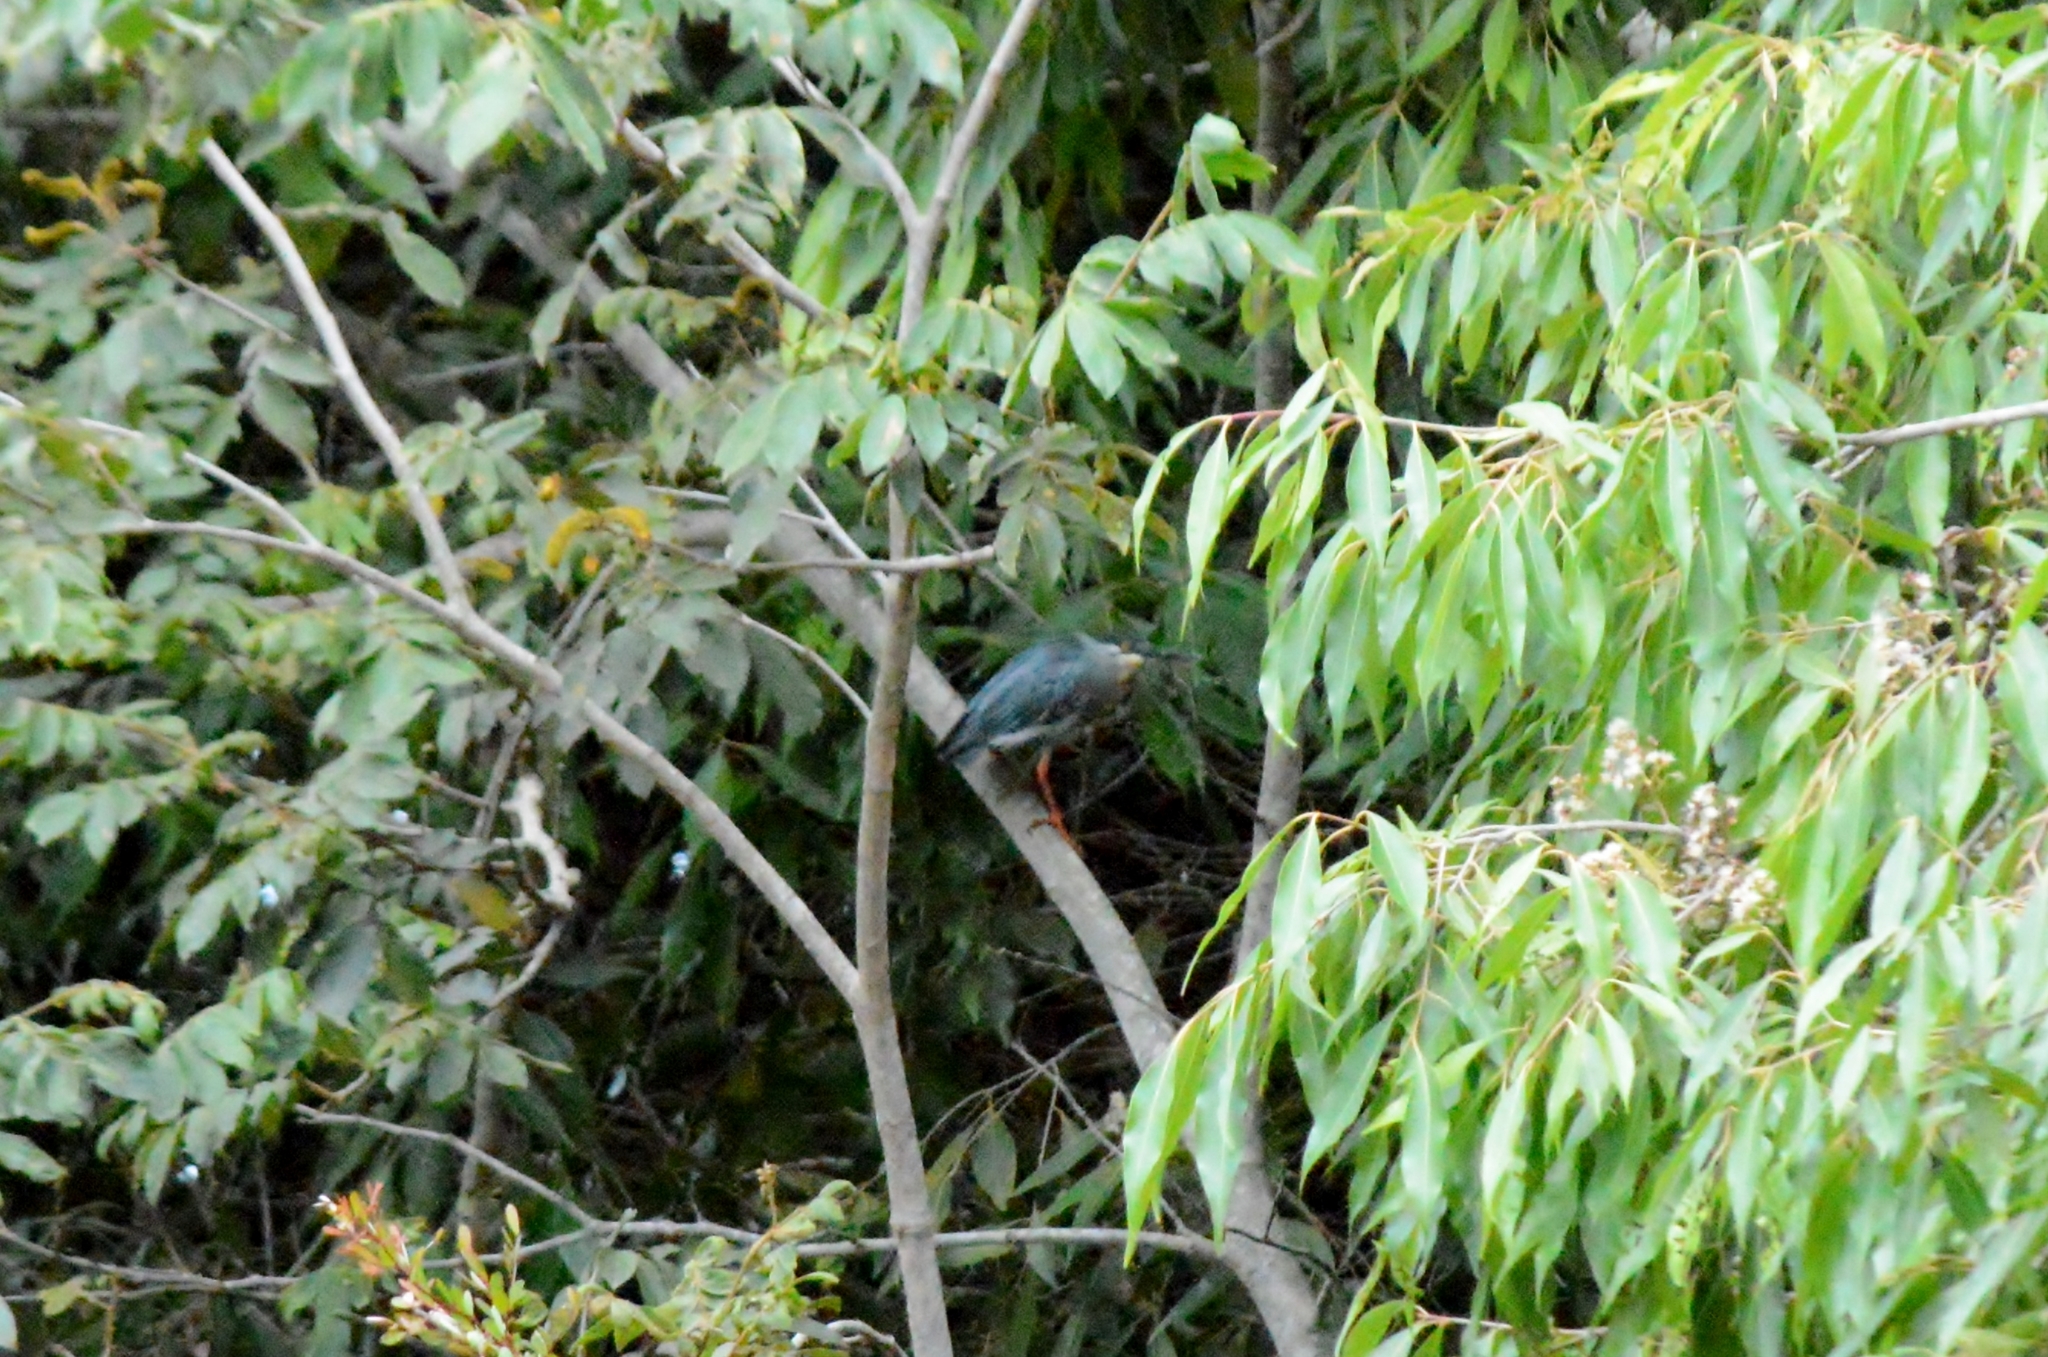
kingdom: Animalia
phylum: Chordata
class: Aves
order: Pelecaniformes
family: Ardeidae
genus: Butorides
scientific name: Butorides striata
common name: Striated heron
